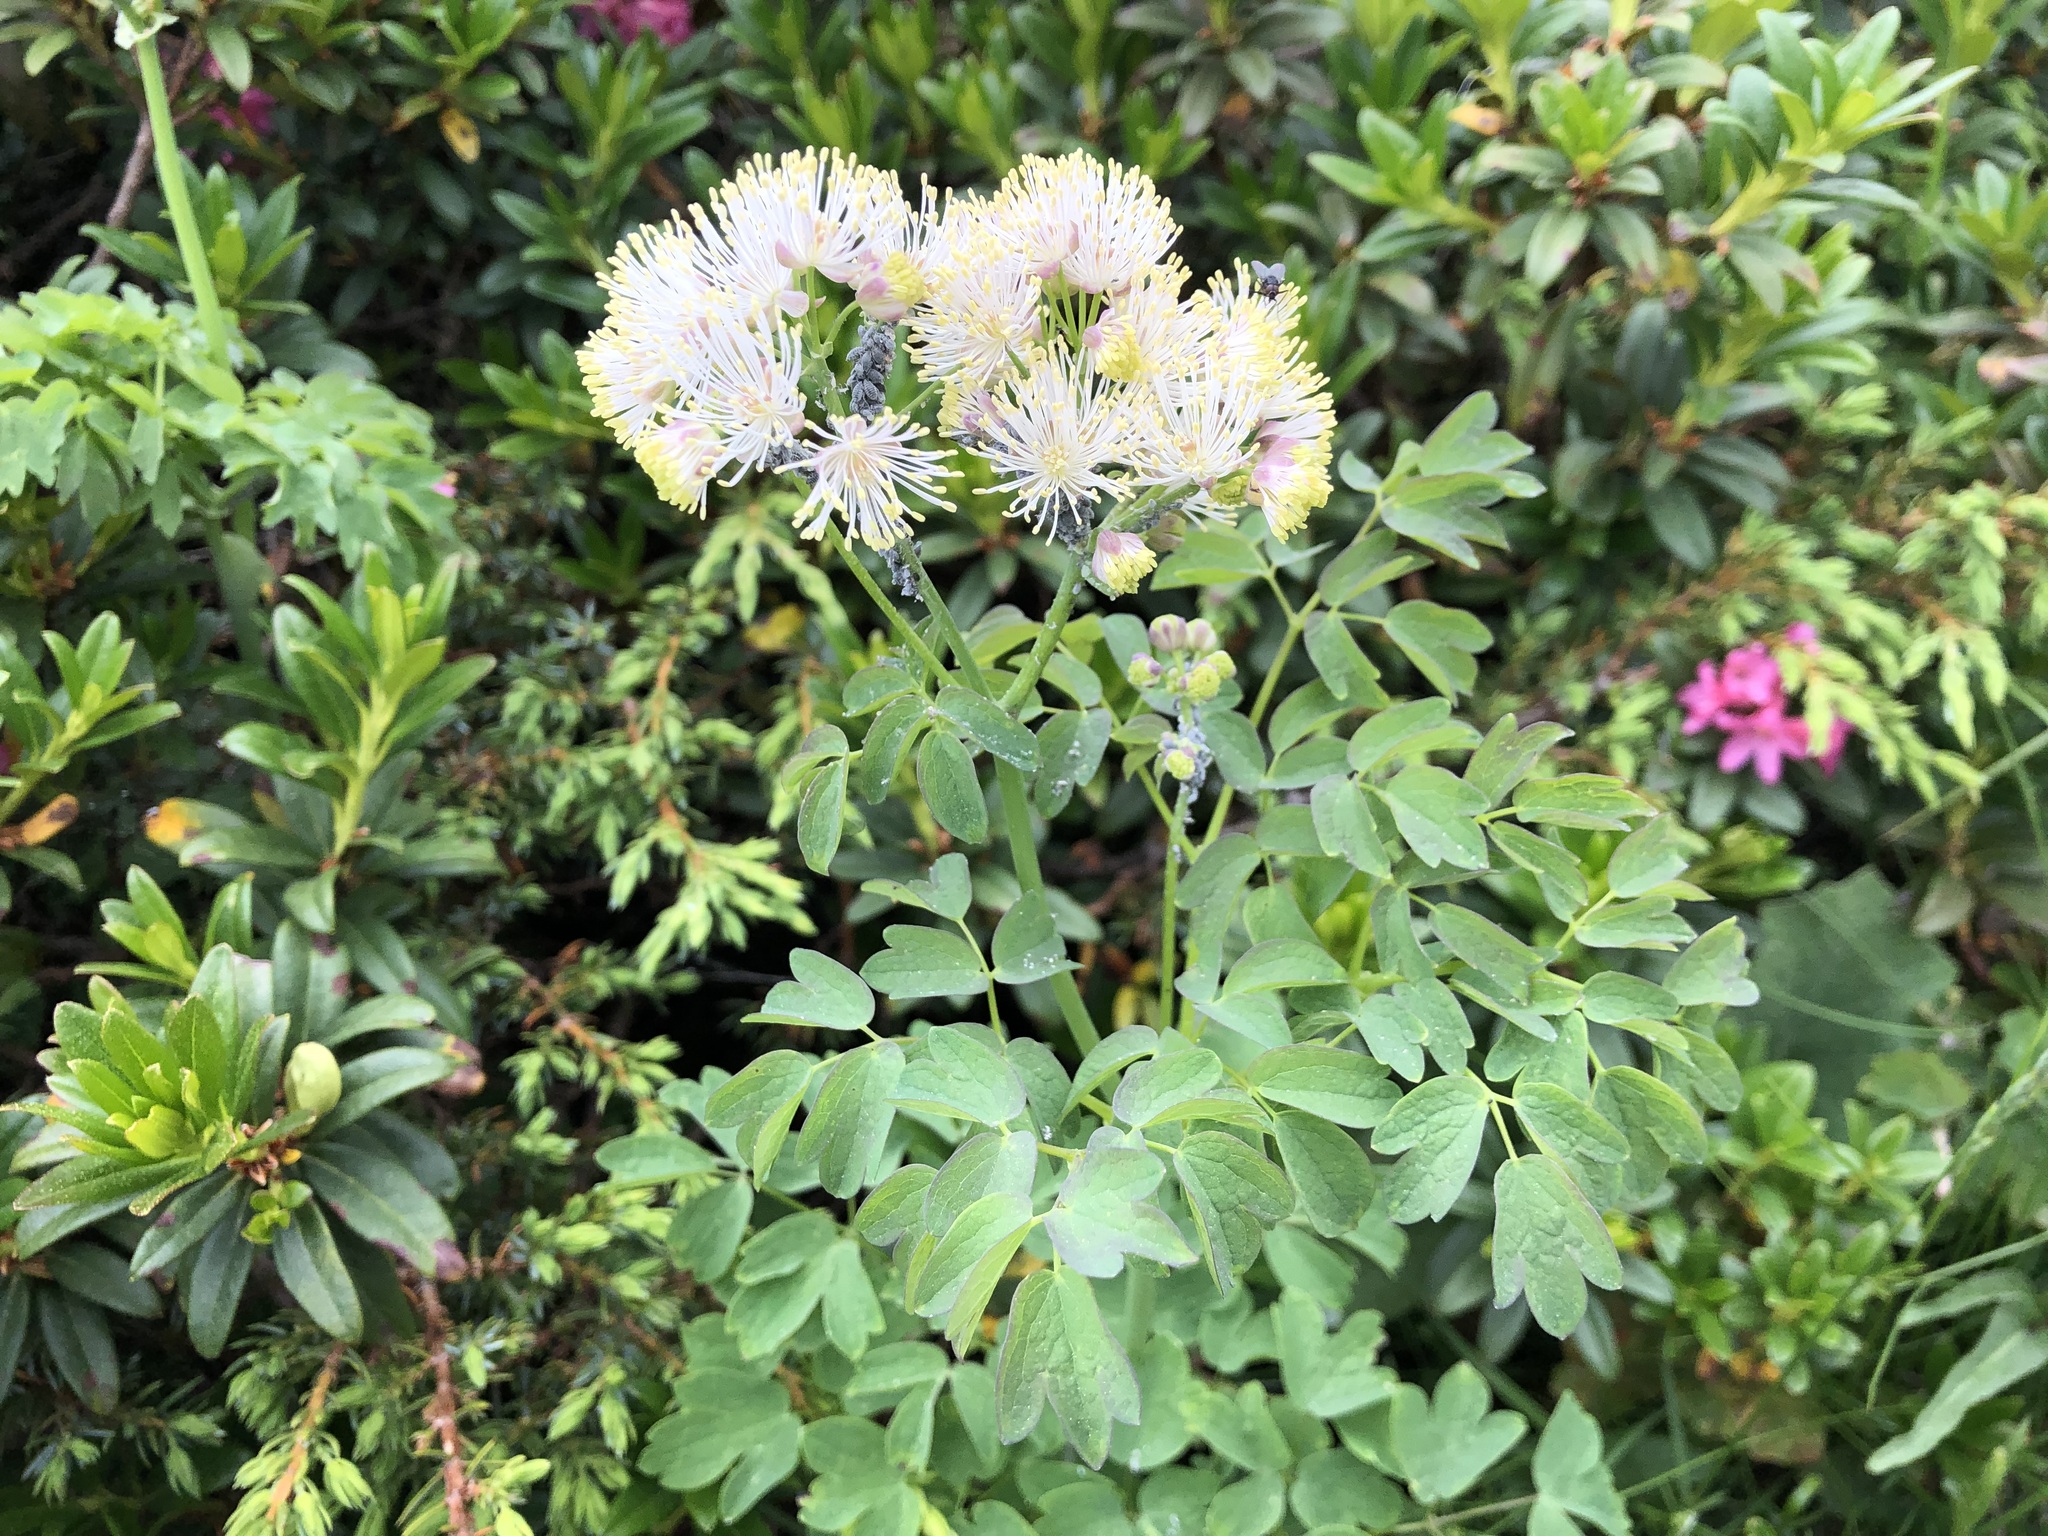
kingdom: Plantae
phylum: Tracheophyta
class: Magnoliopsida
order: Ranunculales
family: Ranunculaceae
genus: Thalictrum
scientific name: Thalictrum aquilegiifolium
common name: French meadow-rue
